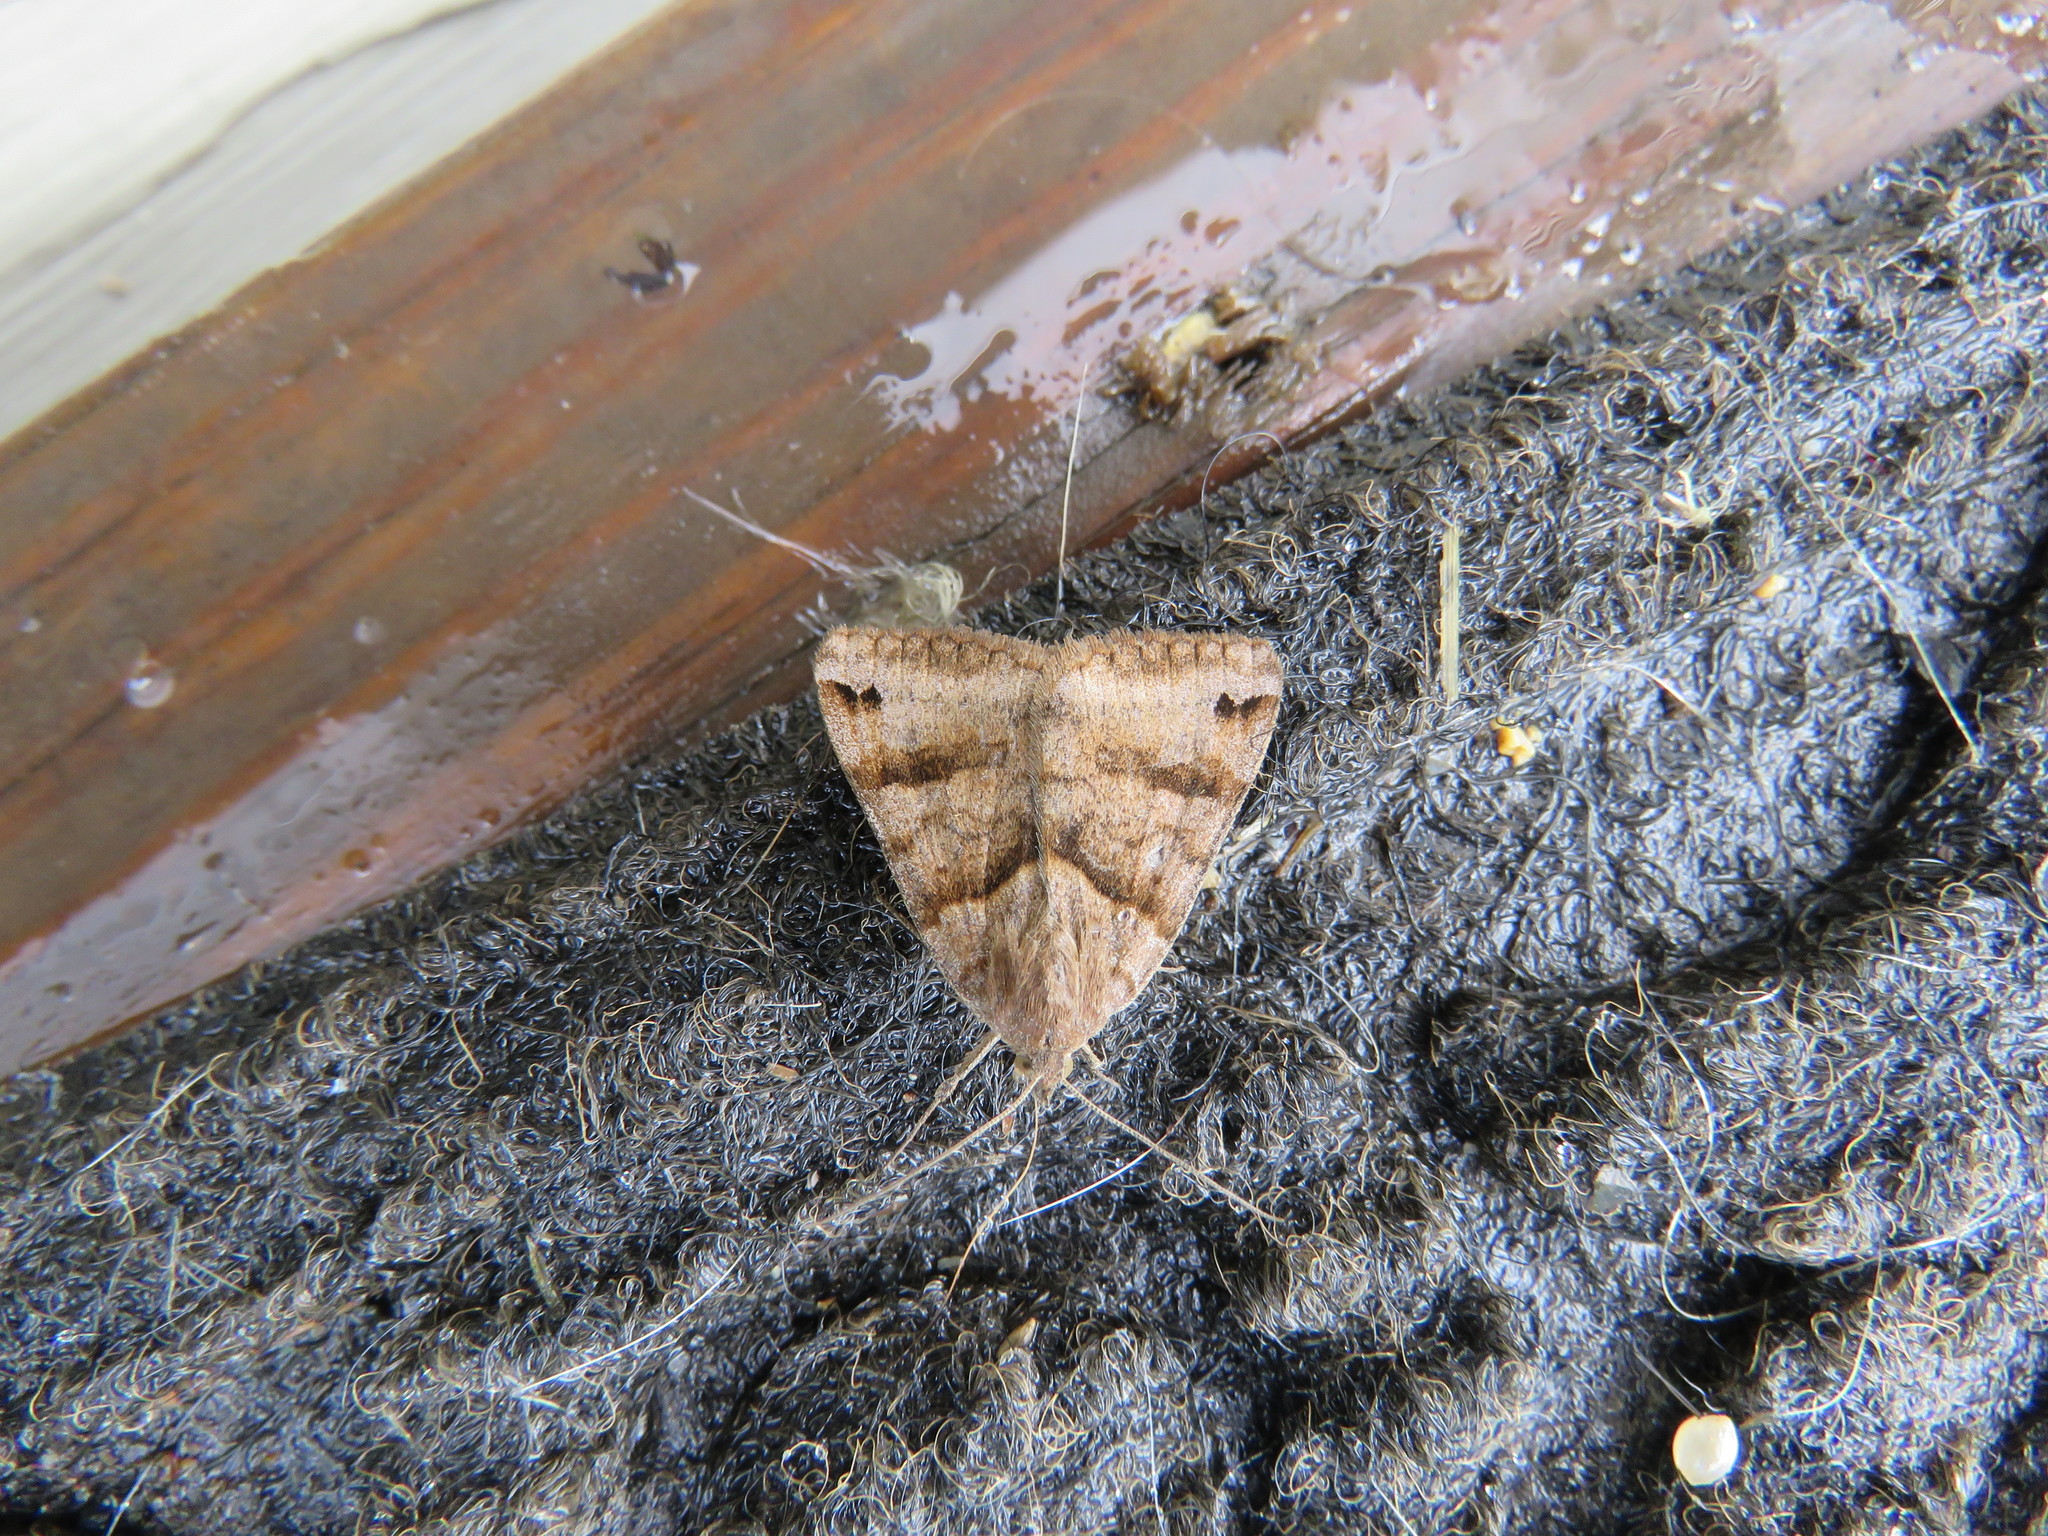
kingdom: Animalia
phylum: Arthropoda
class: Insecta
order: Lepidoptera
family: Erebidae
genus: Caenurgina
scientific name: Caenurgina crassiuscula
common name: Double-barred
